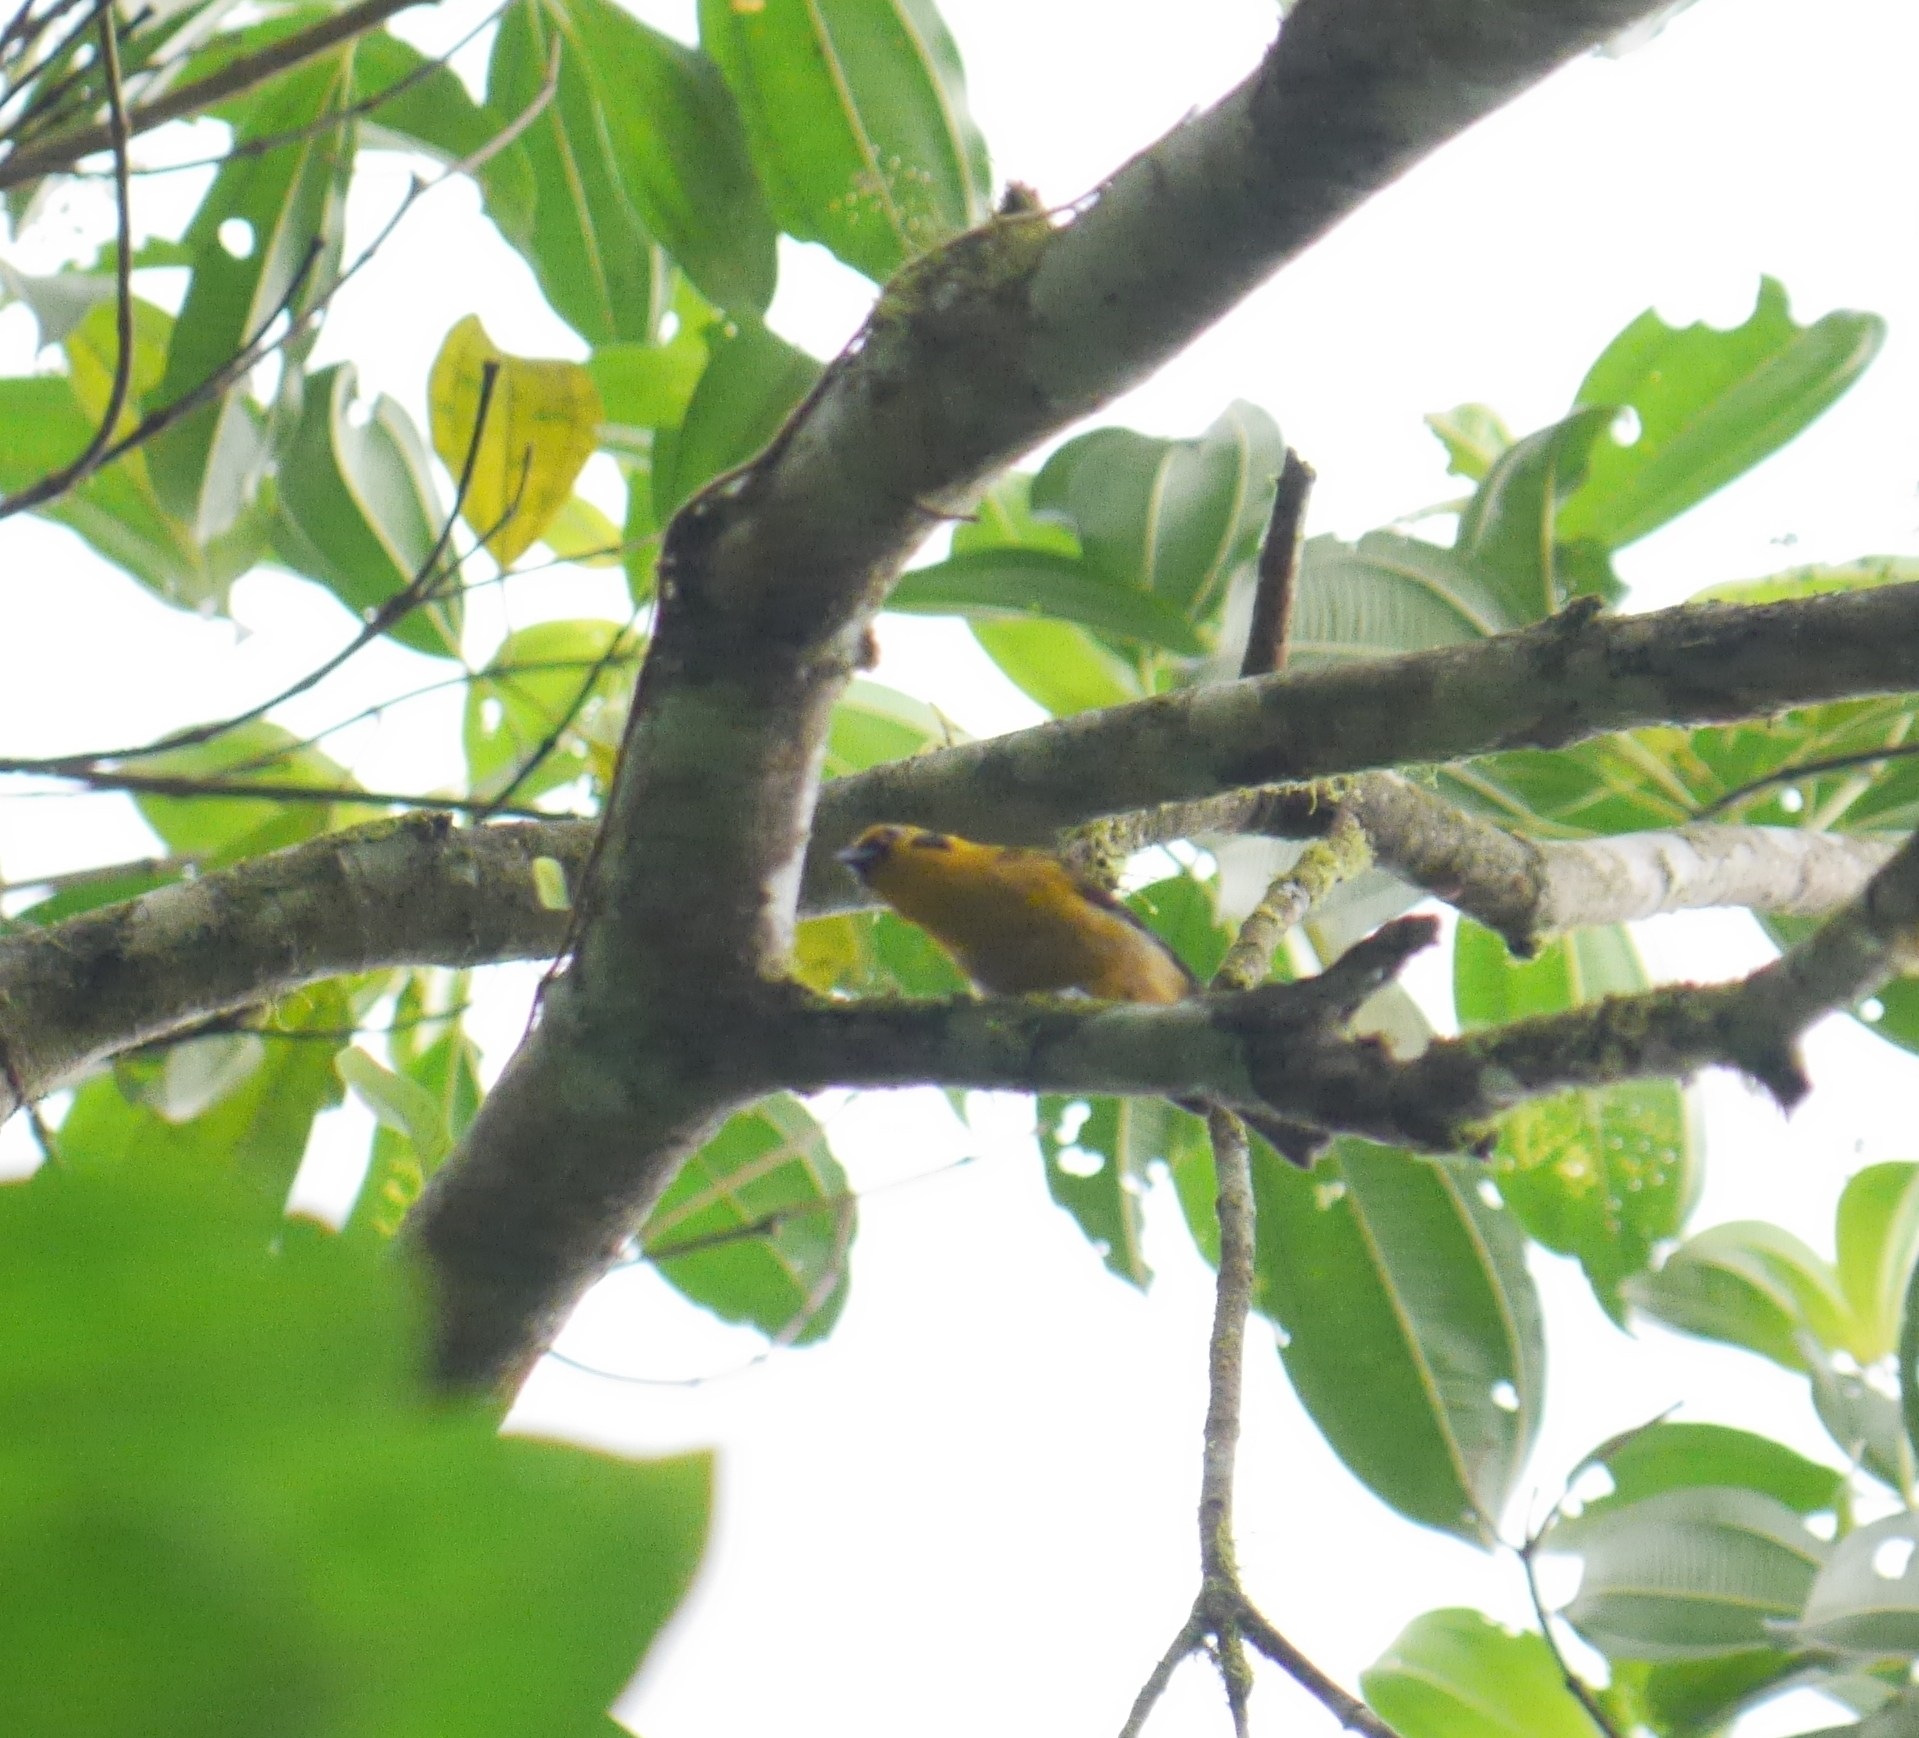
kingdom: Animalia
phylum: Chordata
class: Aves
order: Passeriformes
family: Thraupidae
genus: Tangara
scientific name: Tangara arthus
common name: Golden tanager
